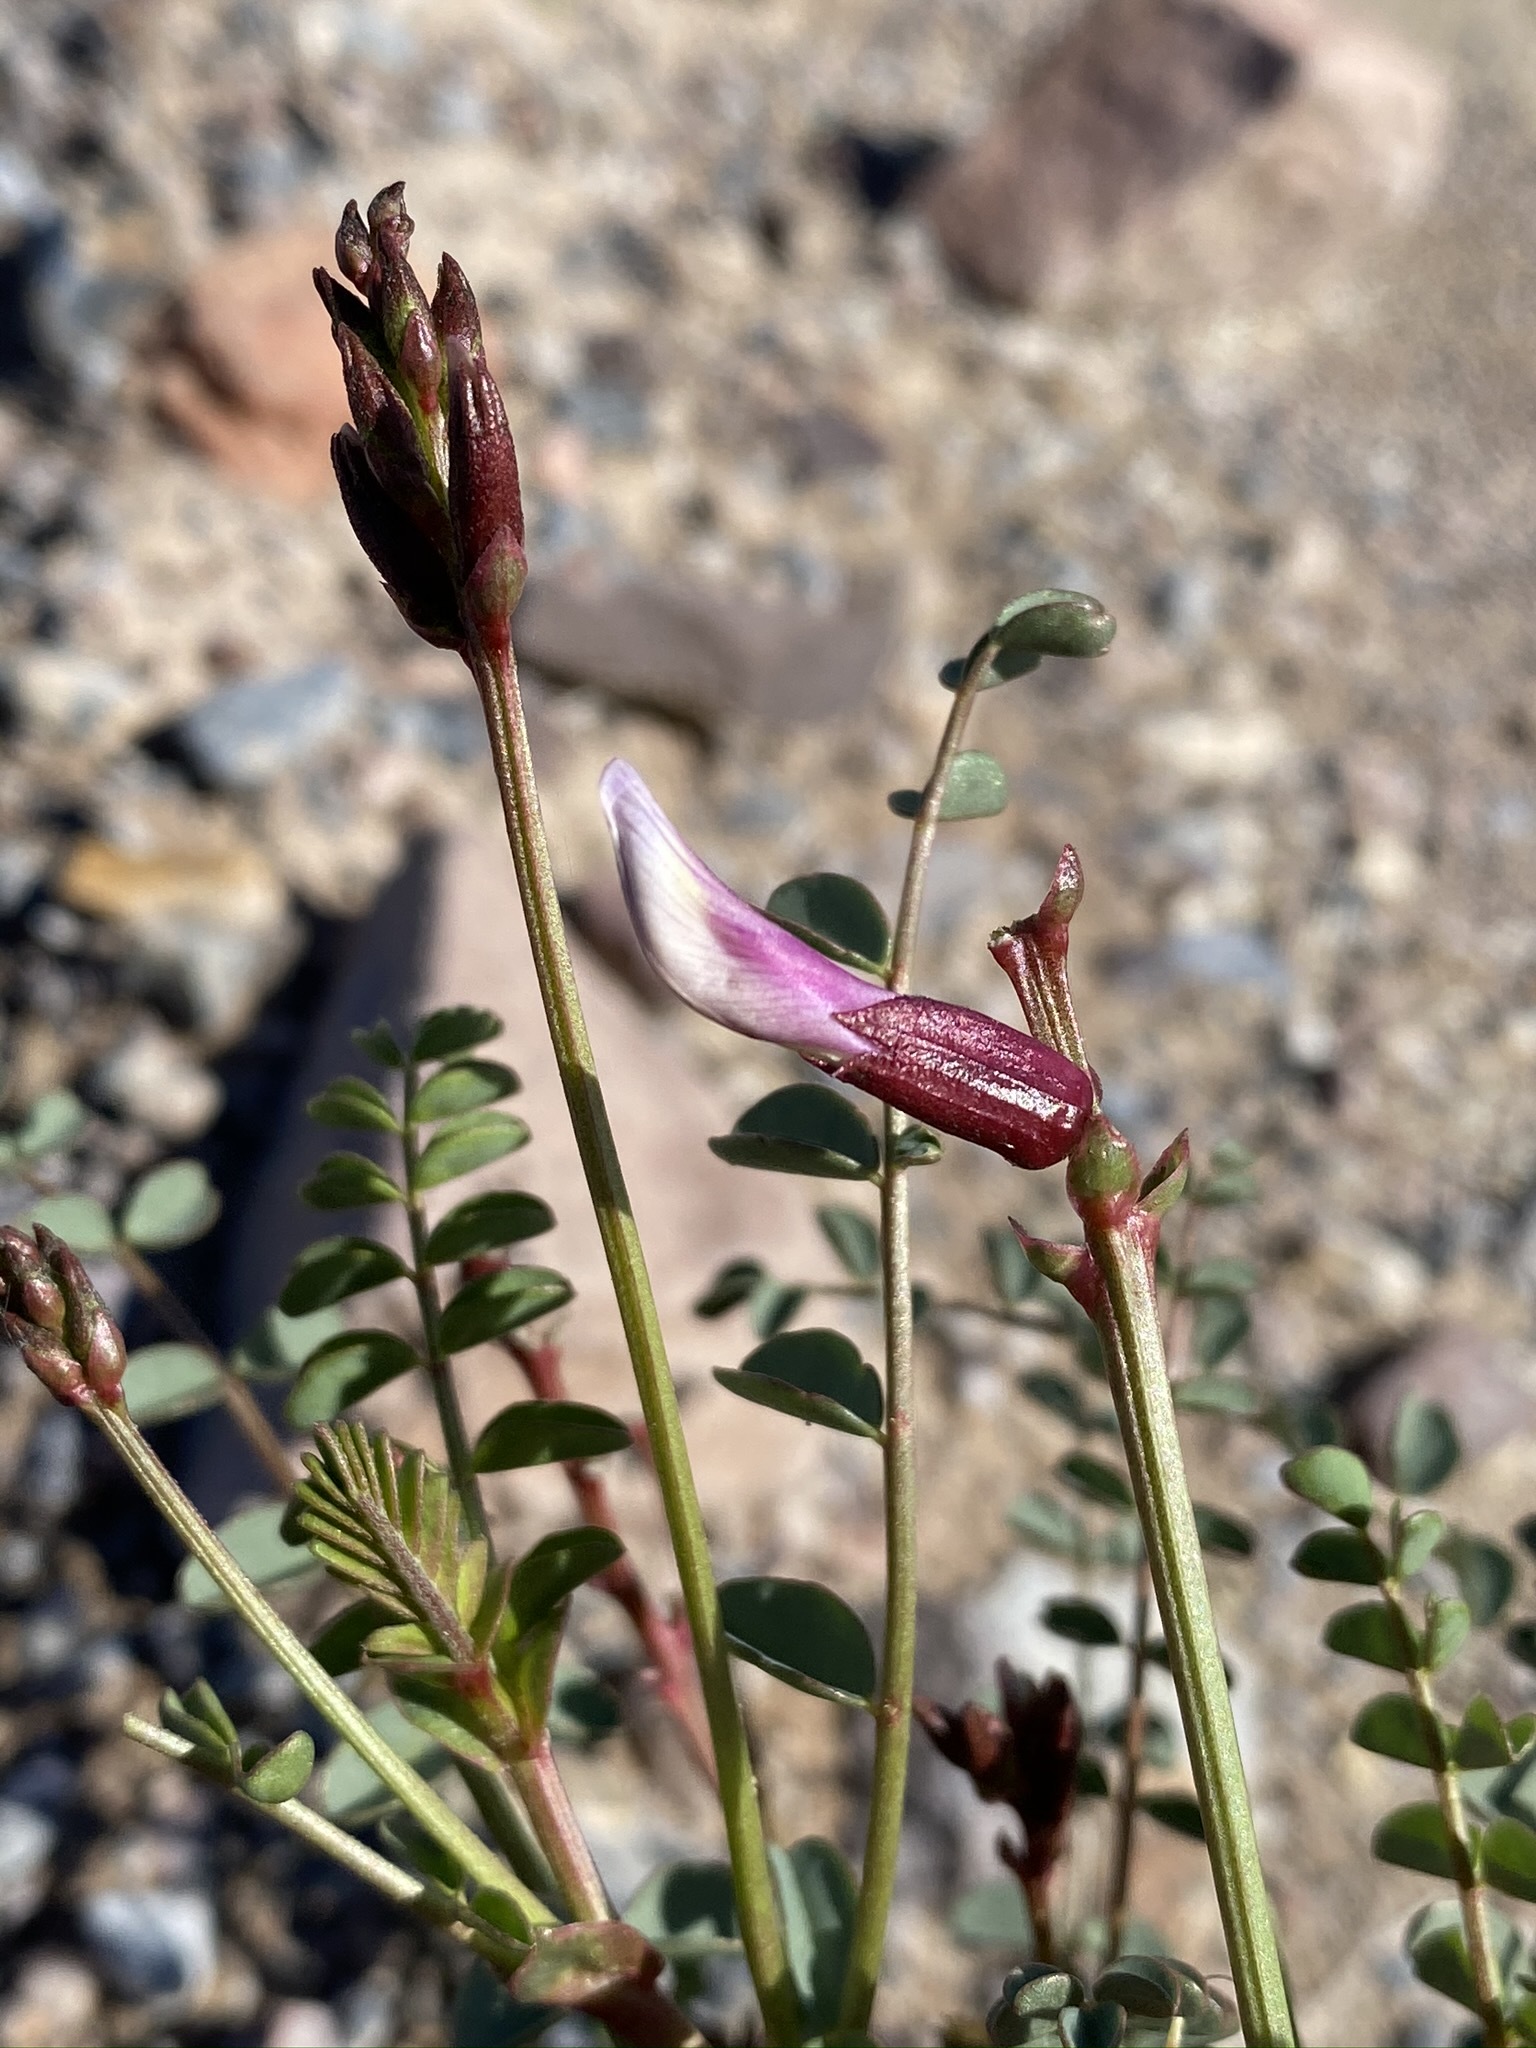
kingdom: Plantae
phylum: Tracheophyta
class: Magnoliopsida
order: Fabales
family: Fabaceae
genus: Astragalus
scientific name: Astragalus preussii
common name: Preuss's milk-vetch
